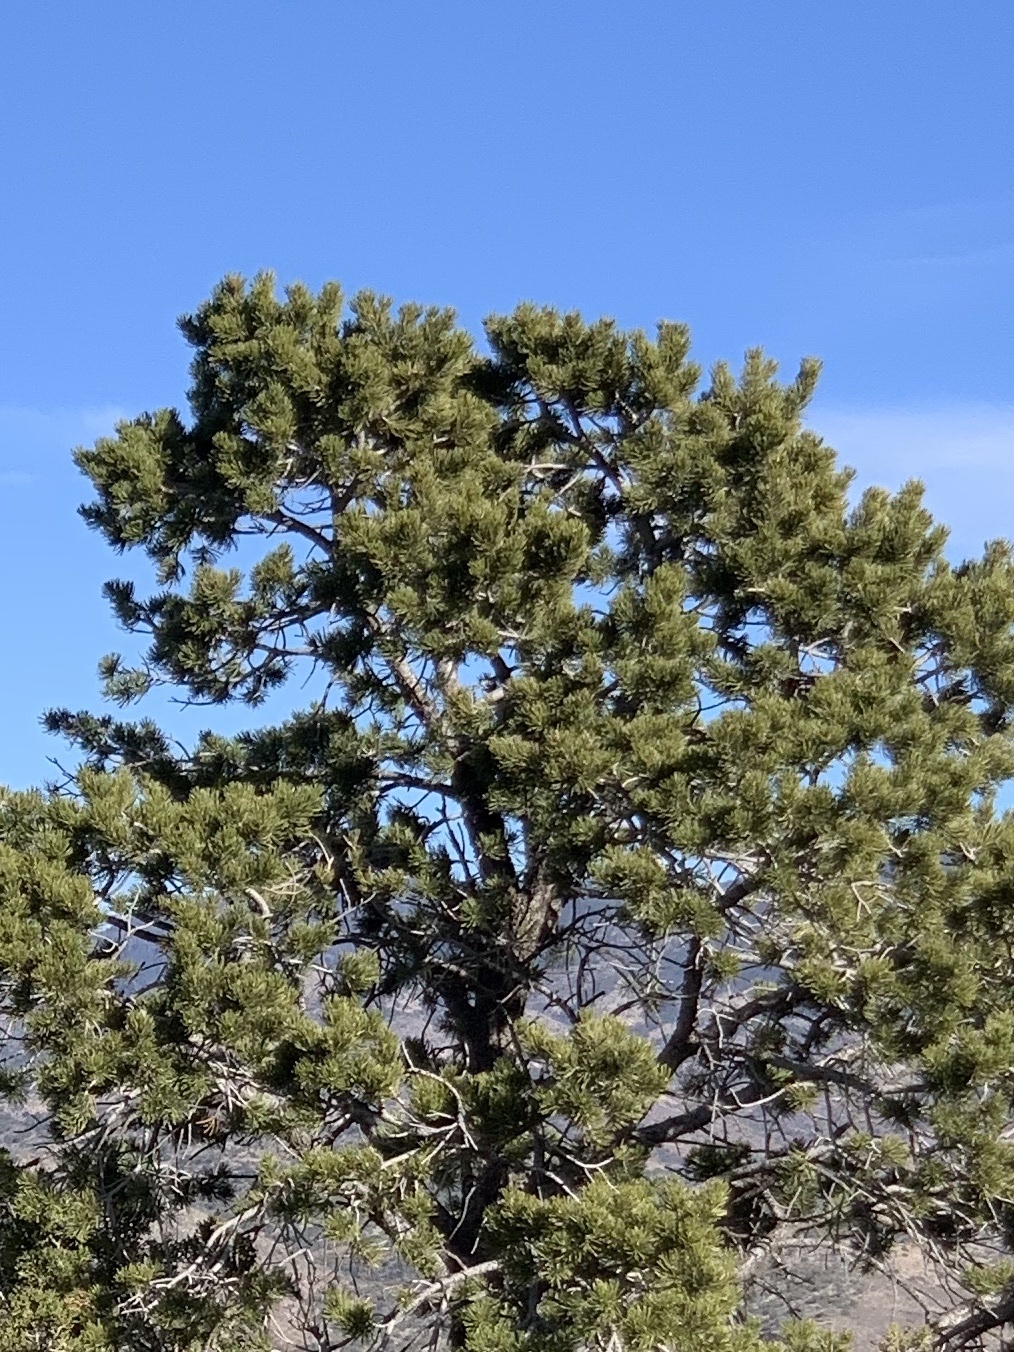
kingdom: Plantae
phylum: Tracheophyta
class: Pinopsida
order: Pinales
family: Pinaceae
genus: Pinus
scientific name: Pinus edulis
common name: Colorado pinyon
